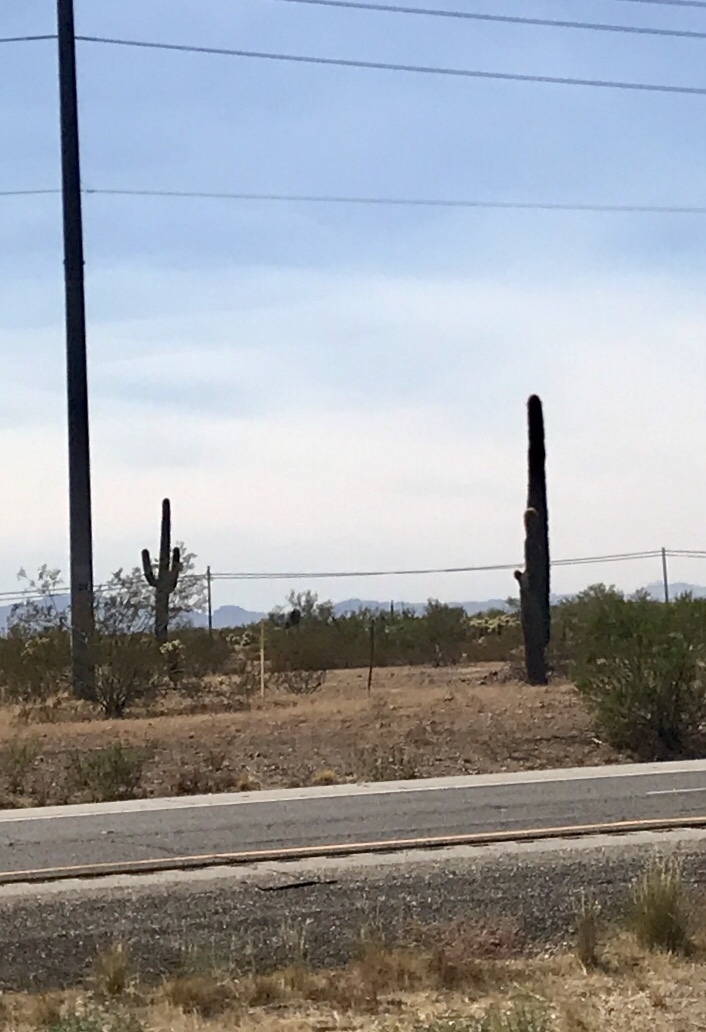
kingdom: Plantae
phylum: Tracheophyta
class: Magnoliopsida
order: Caryophyllales
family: Cactaceae
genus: Carnegiea
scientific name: Carnegiea gigantea
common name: Saguaro
